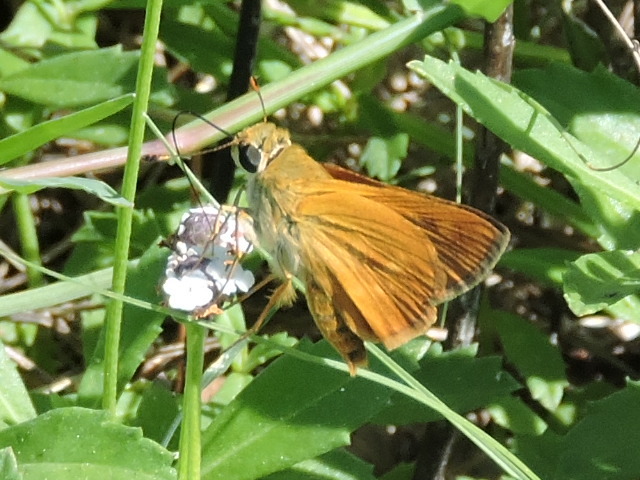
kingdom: Animalia
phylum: Arthropoda
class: Insecta
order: Lepidoptera
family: Hesperiidae
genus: Atalopedes
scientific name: Atalopedes
